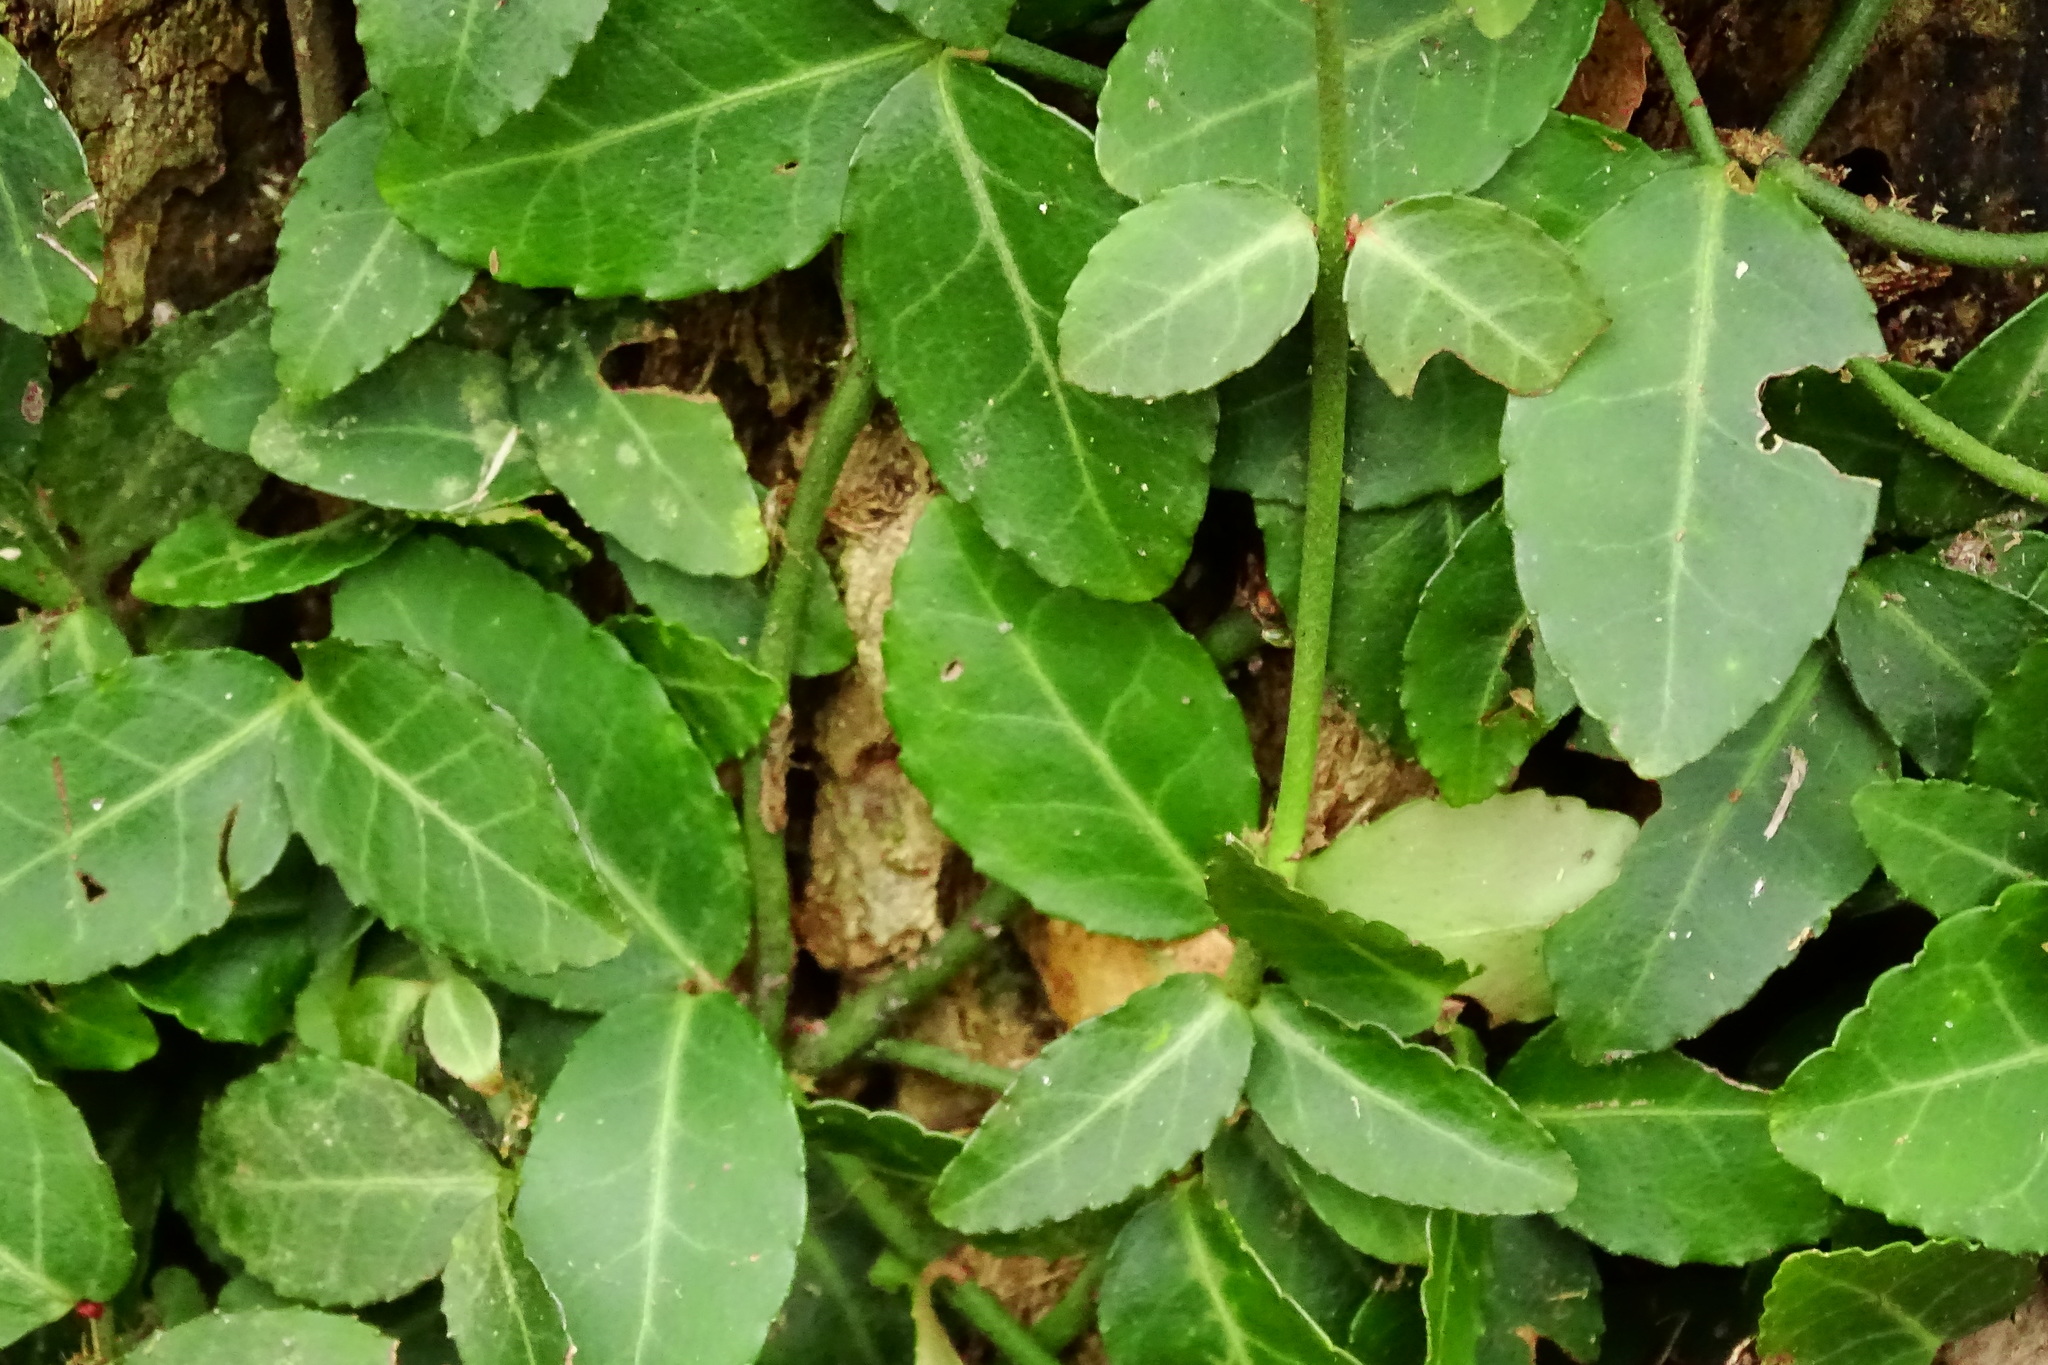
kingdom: Plantae
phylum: Tracheophyta
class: Magnoliopsida
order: Celastrales
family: Celastraceae
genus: Euonymus
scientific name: Euonymus fortunei
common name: Climbing euonymus
